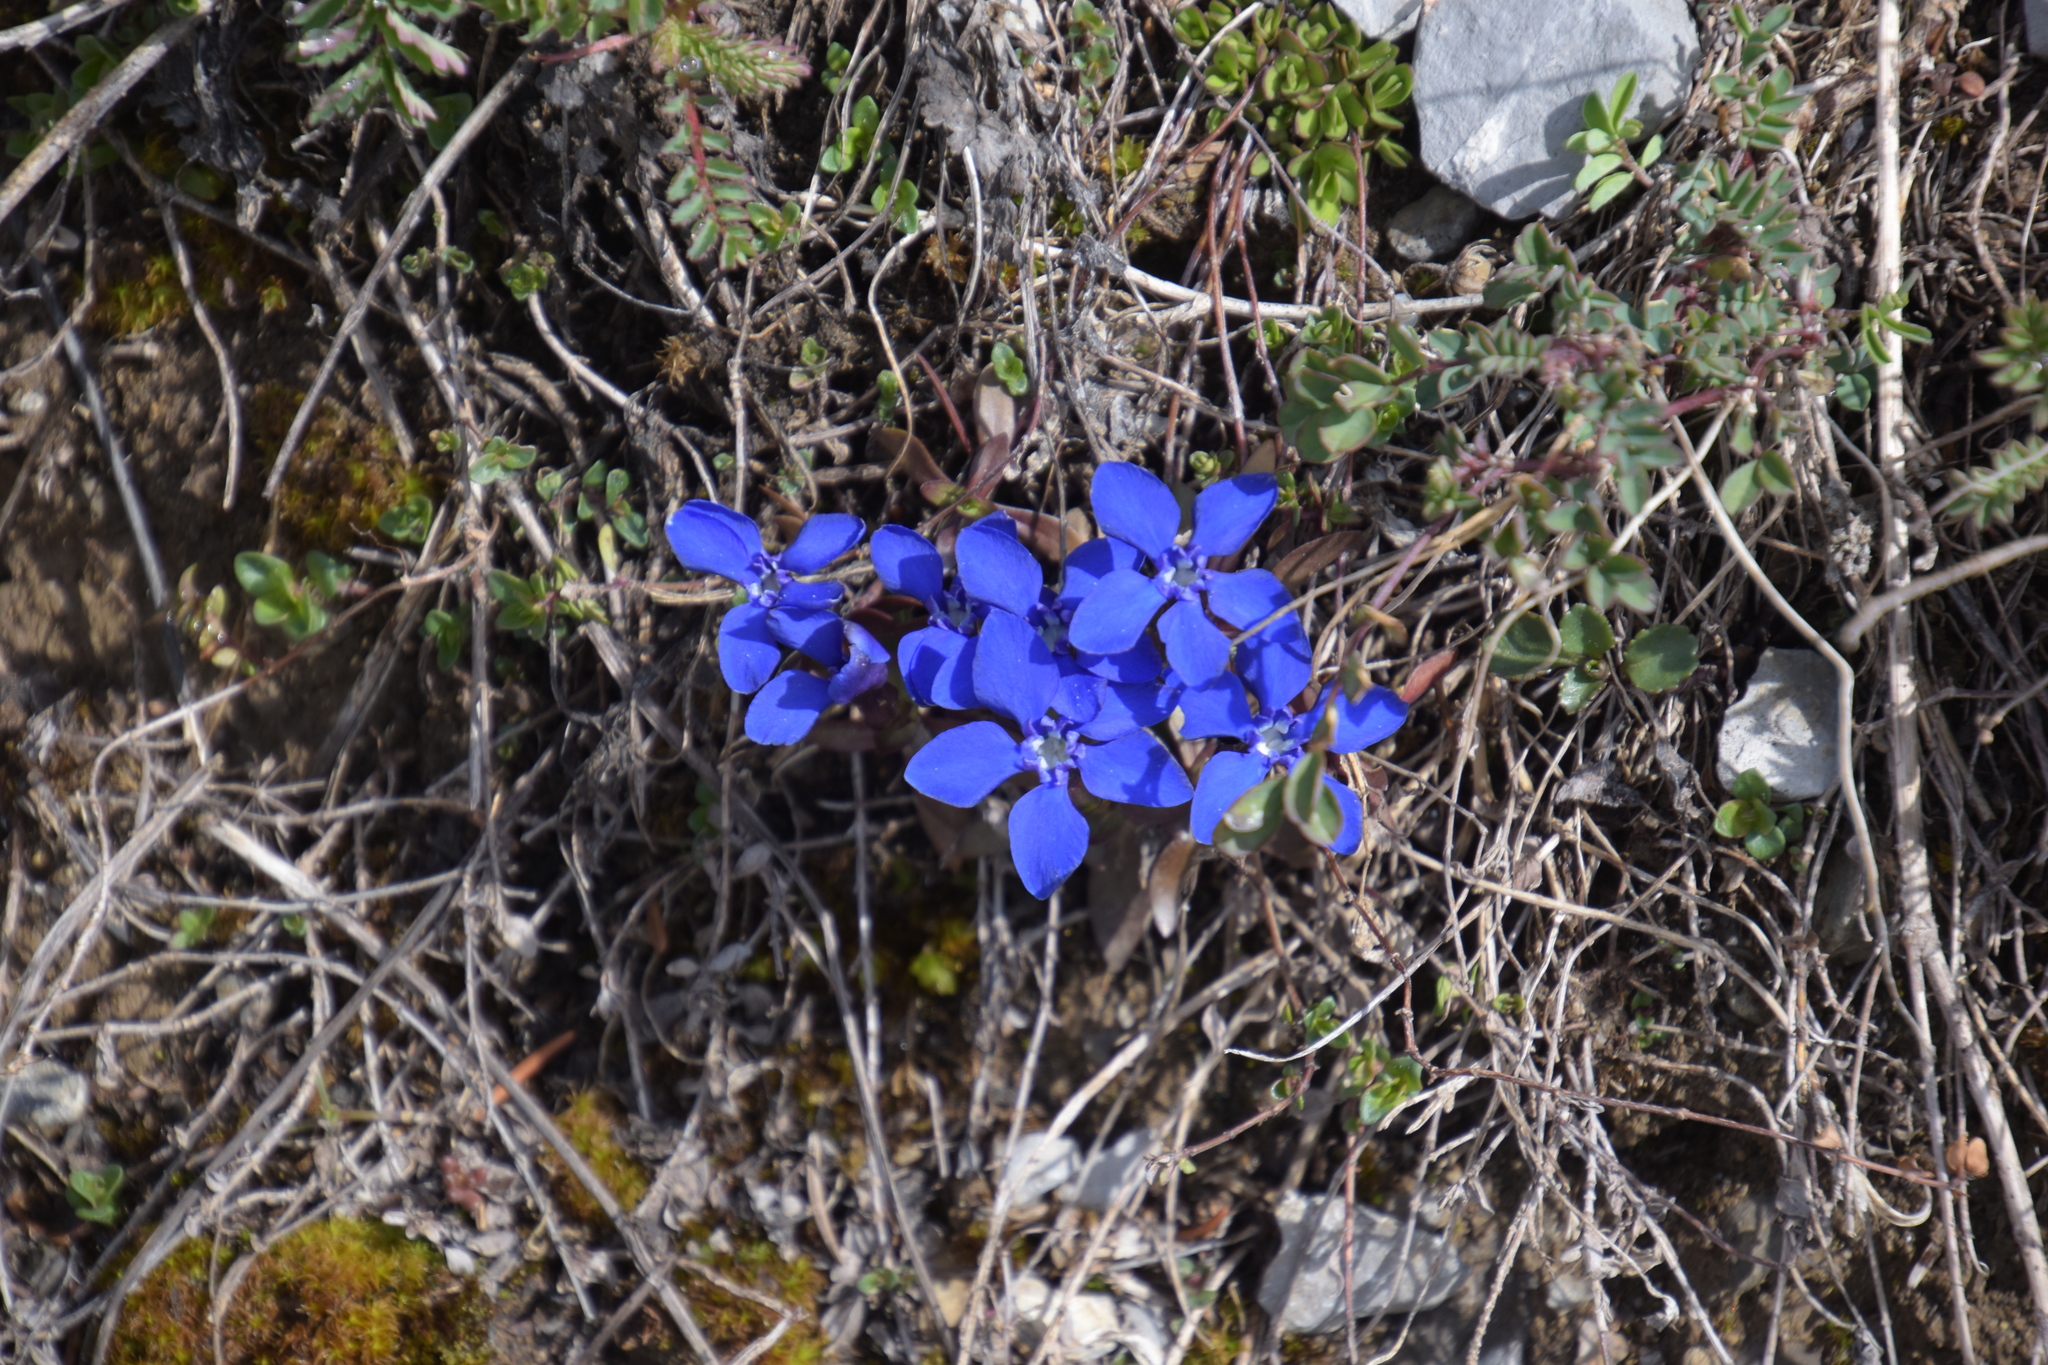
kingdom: Plantae
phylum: Tracheophyta
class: Magnoliopsida
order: Gentianales
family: Gentianaceae
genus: Gentiana
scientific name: Gentiana verna
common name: Spring gentian
